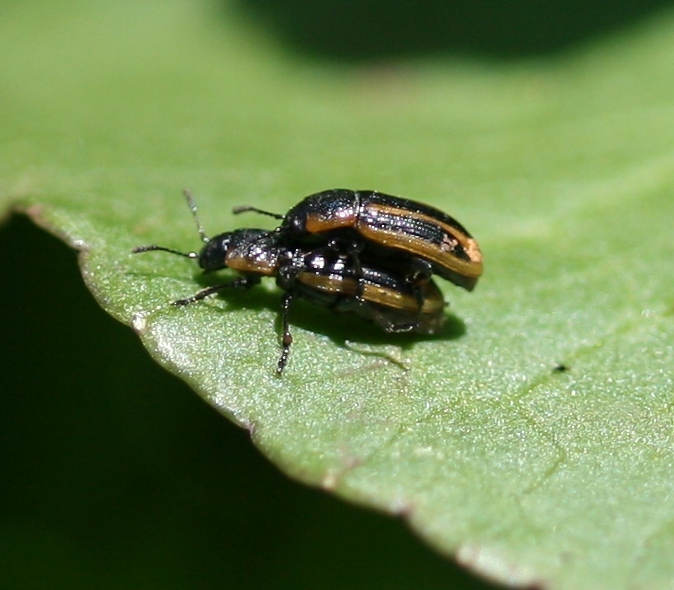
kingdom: Animalia
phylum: Arthropoda
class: Insecta
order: Coleoptera
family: Chrysomelidae
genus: Prasocuris
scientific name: Prasocuris phellandrii
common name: Leaf beetle
